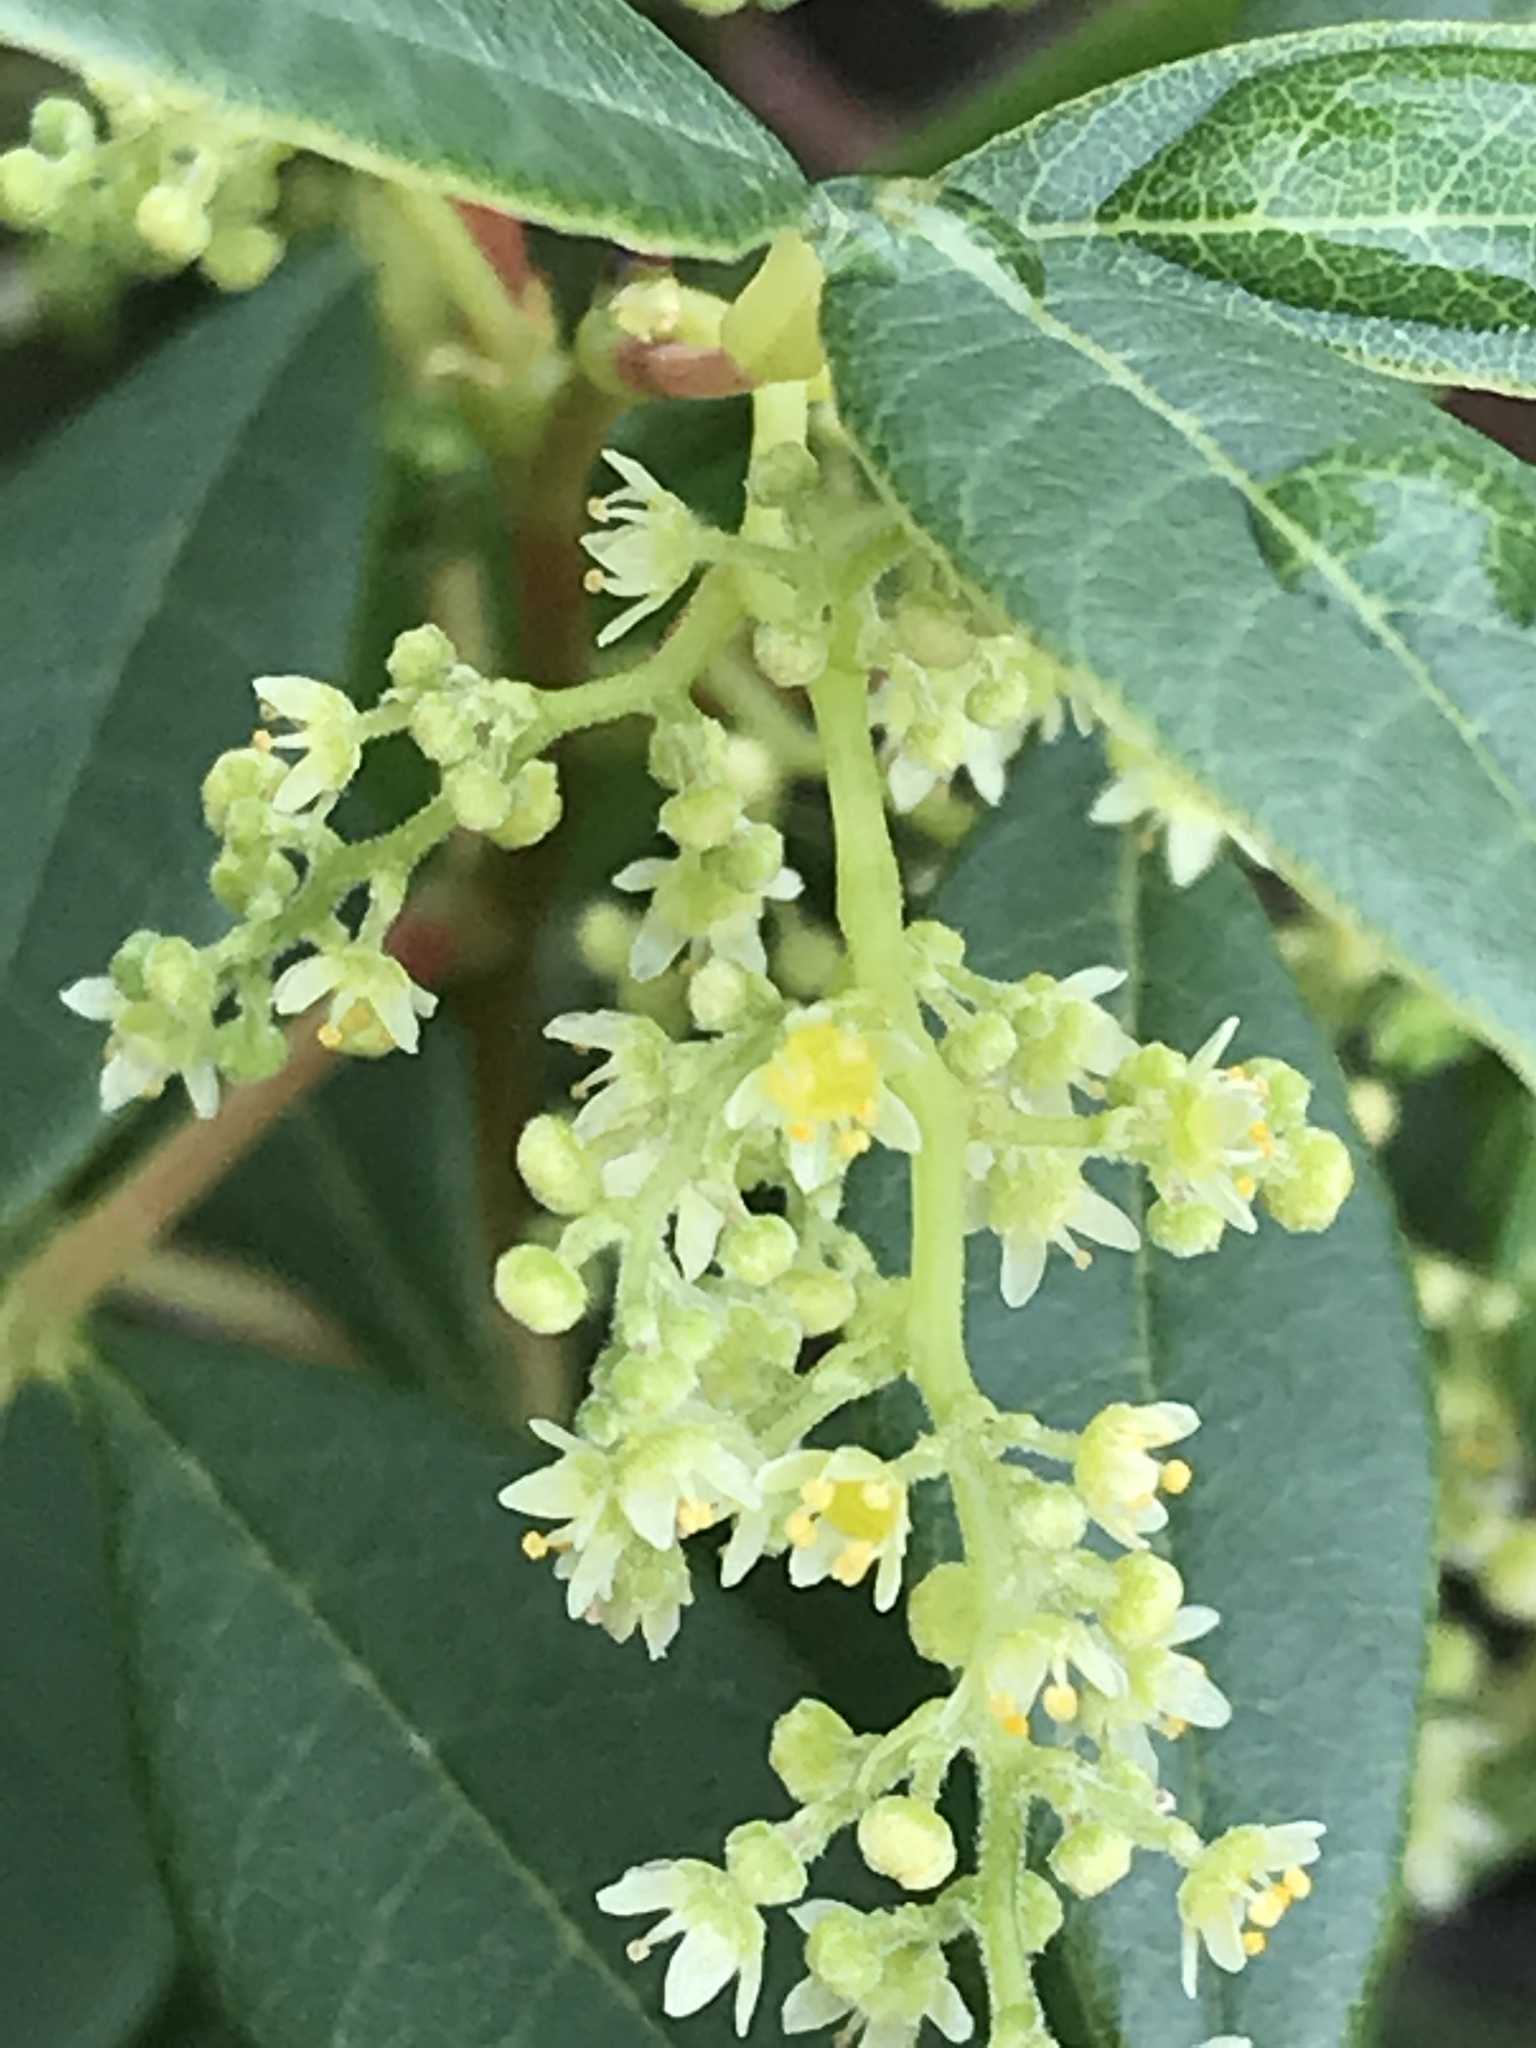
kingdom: Plantae
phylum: Tracheophyta
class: Magnoliopsida
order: Sapindales
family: Anacardiaceae
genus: Searsia
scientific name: Searsia tomentosa
